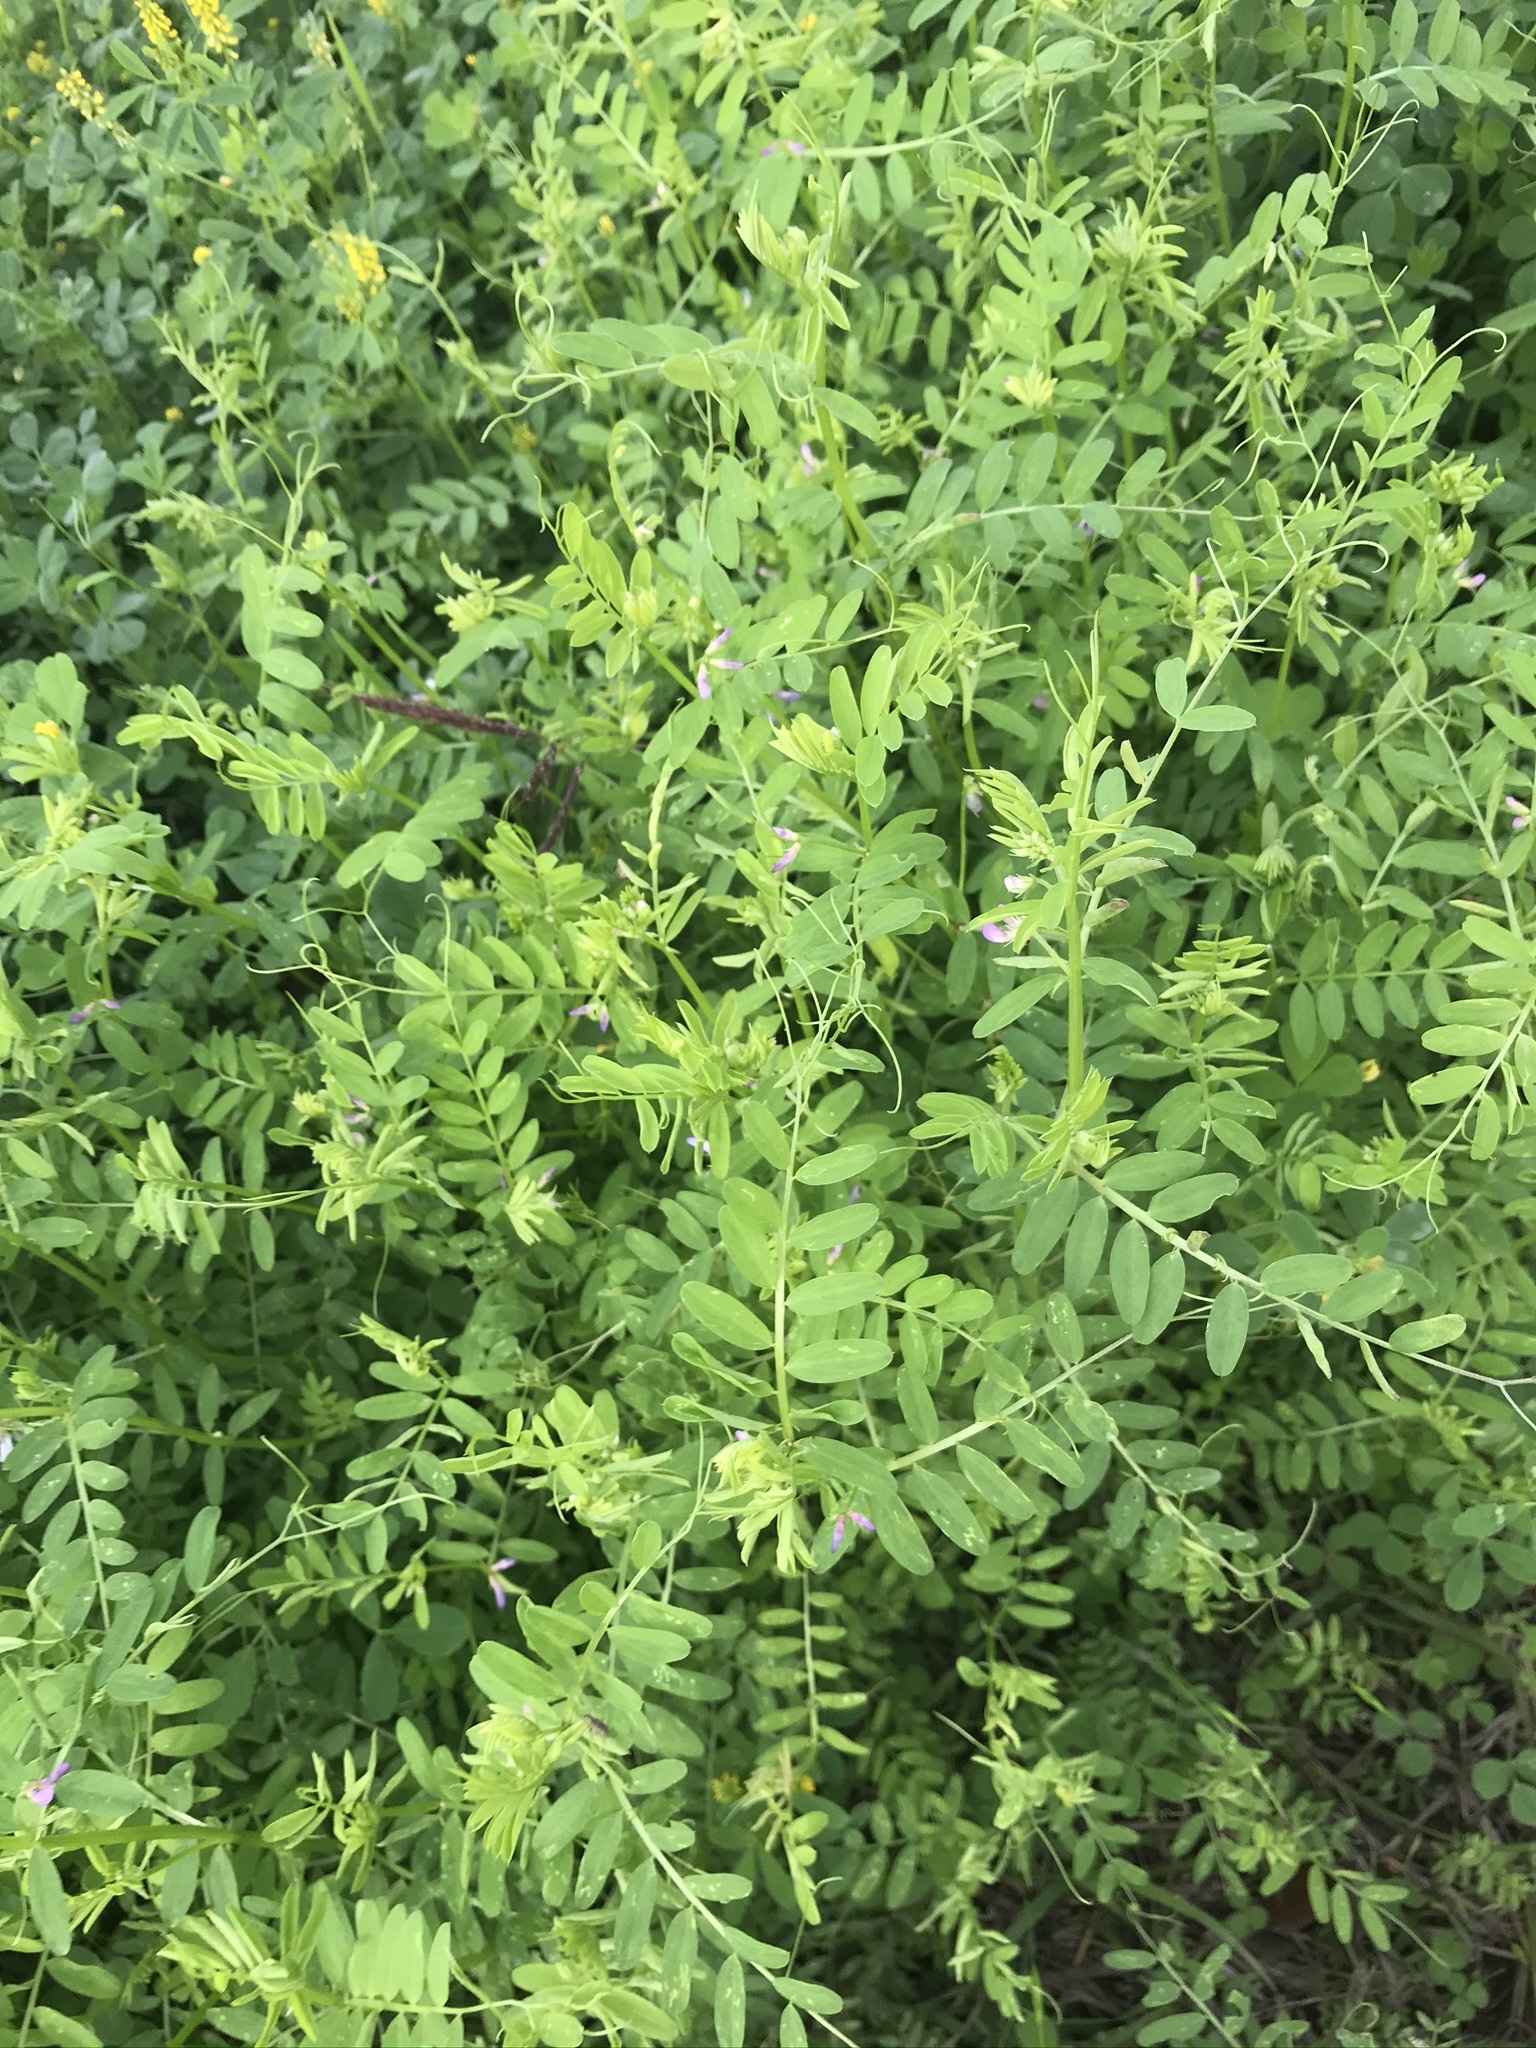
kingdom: Plantae
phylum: Tracheophyta
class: Magnoliopsida
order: Fabales
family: Fabaceae
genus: Vicia
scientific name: Vicia ludoviciana
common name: Louisiana vetch
